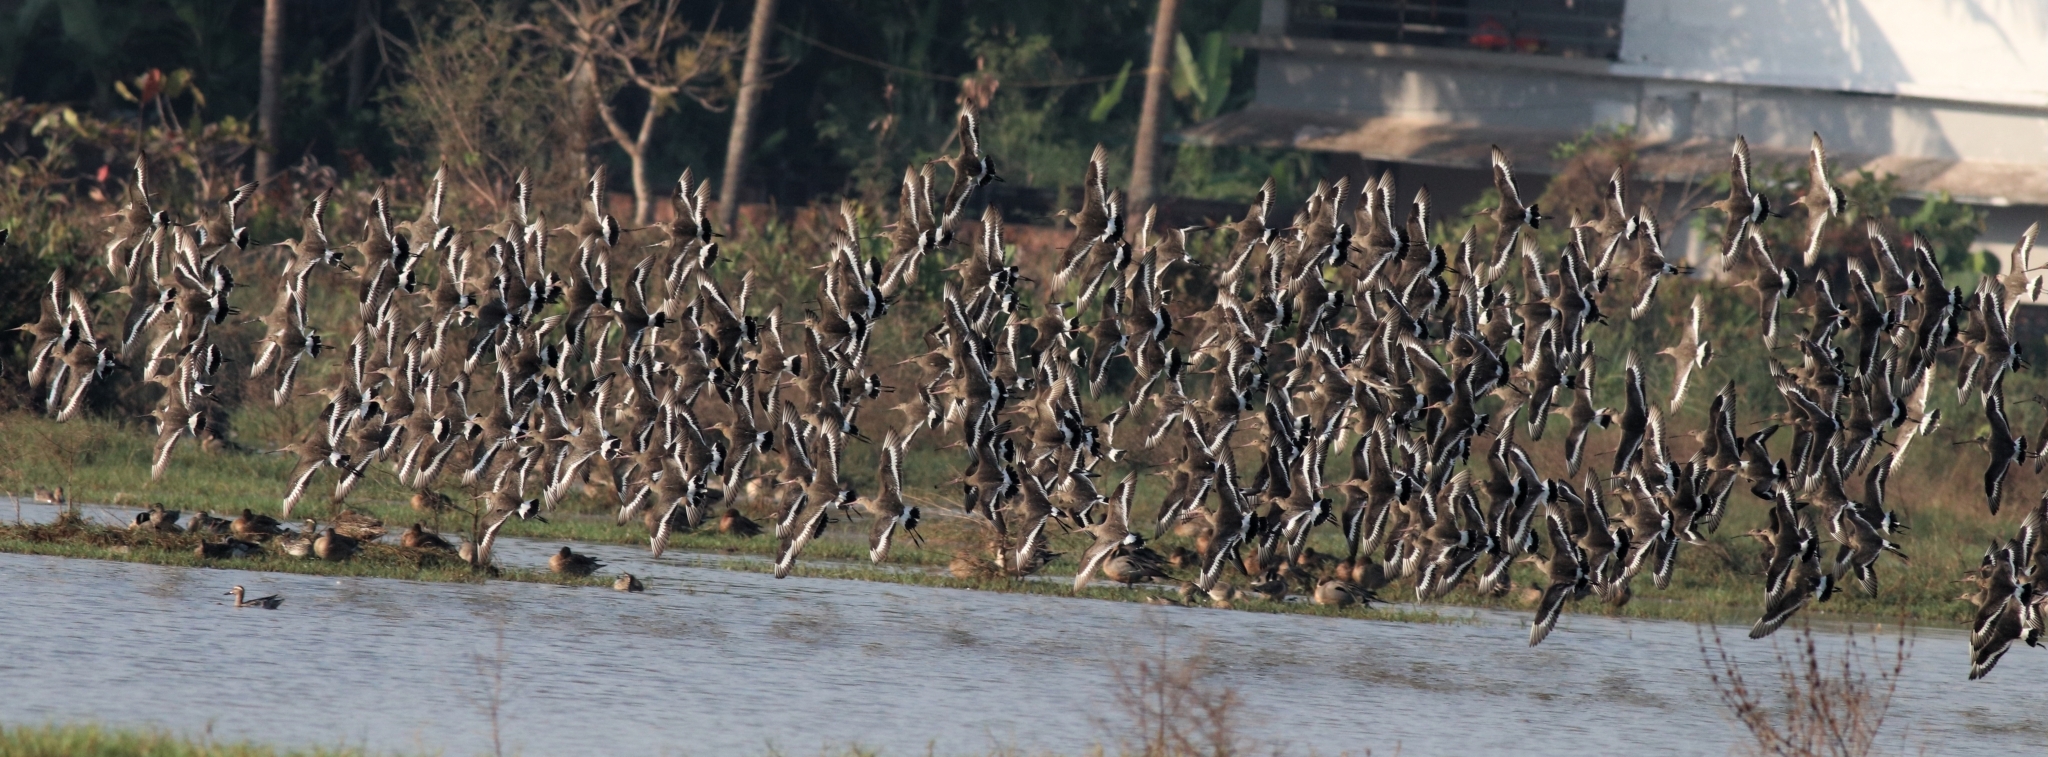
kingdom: Animalia
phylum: Chordata
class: Aves
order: Charadriiformes
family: Scolopacidae
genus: Limosa
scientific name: Limosa limosa
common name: Black-tailed godwit
